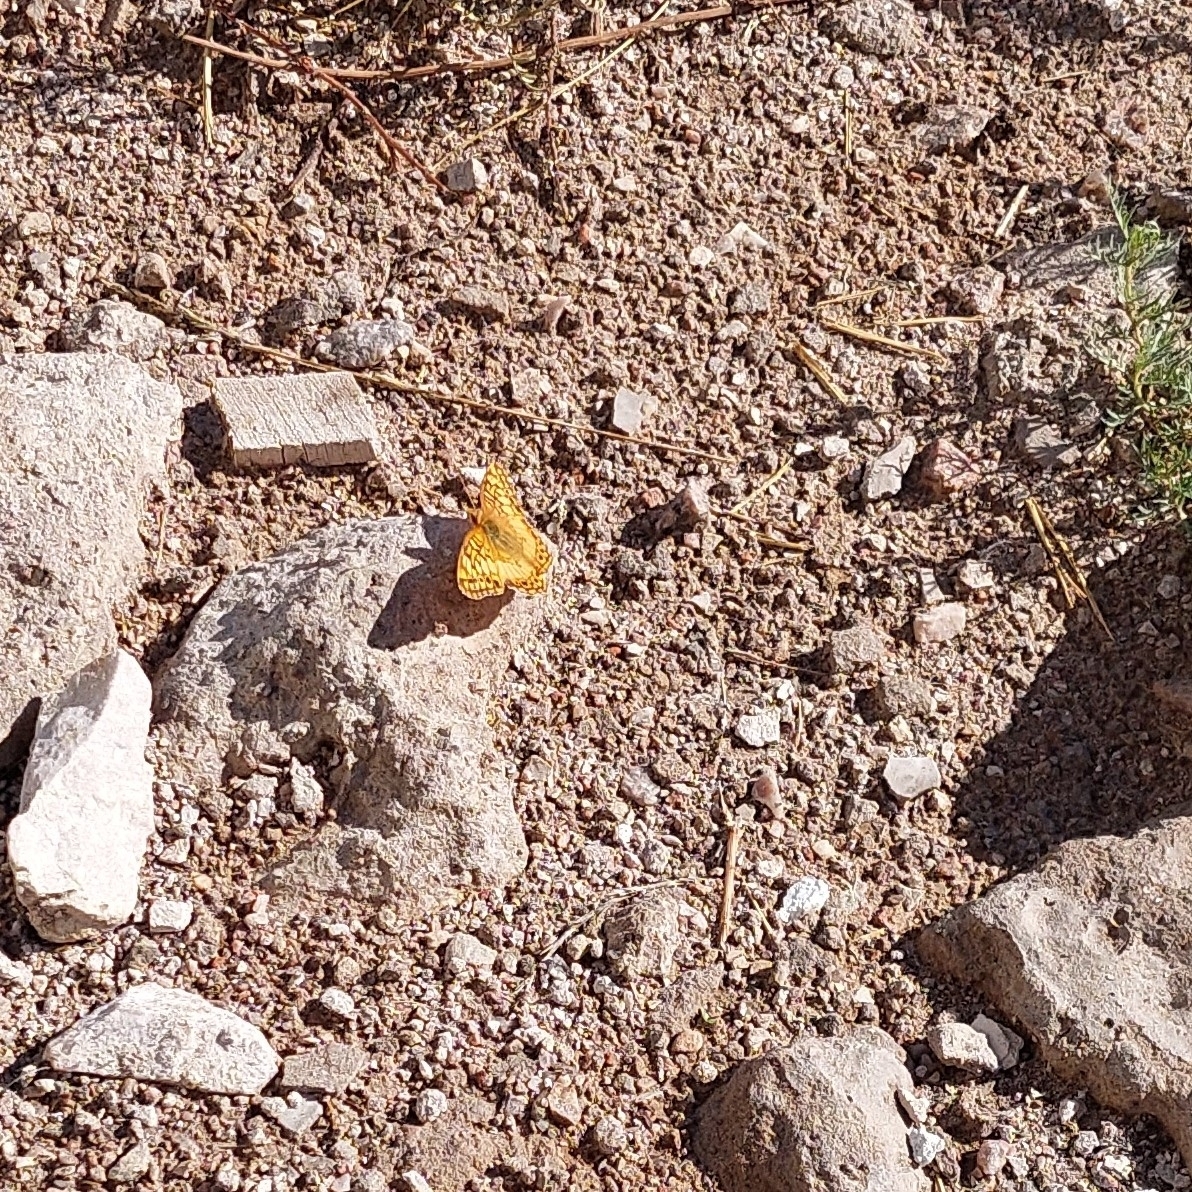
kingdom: Animalia
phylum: Arthropoda
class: Insecta
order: Lepidoptera
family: Nymphalidae
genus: Euptoieta
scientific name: Euptoieta hortensia
